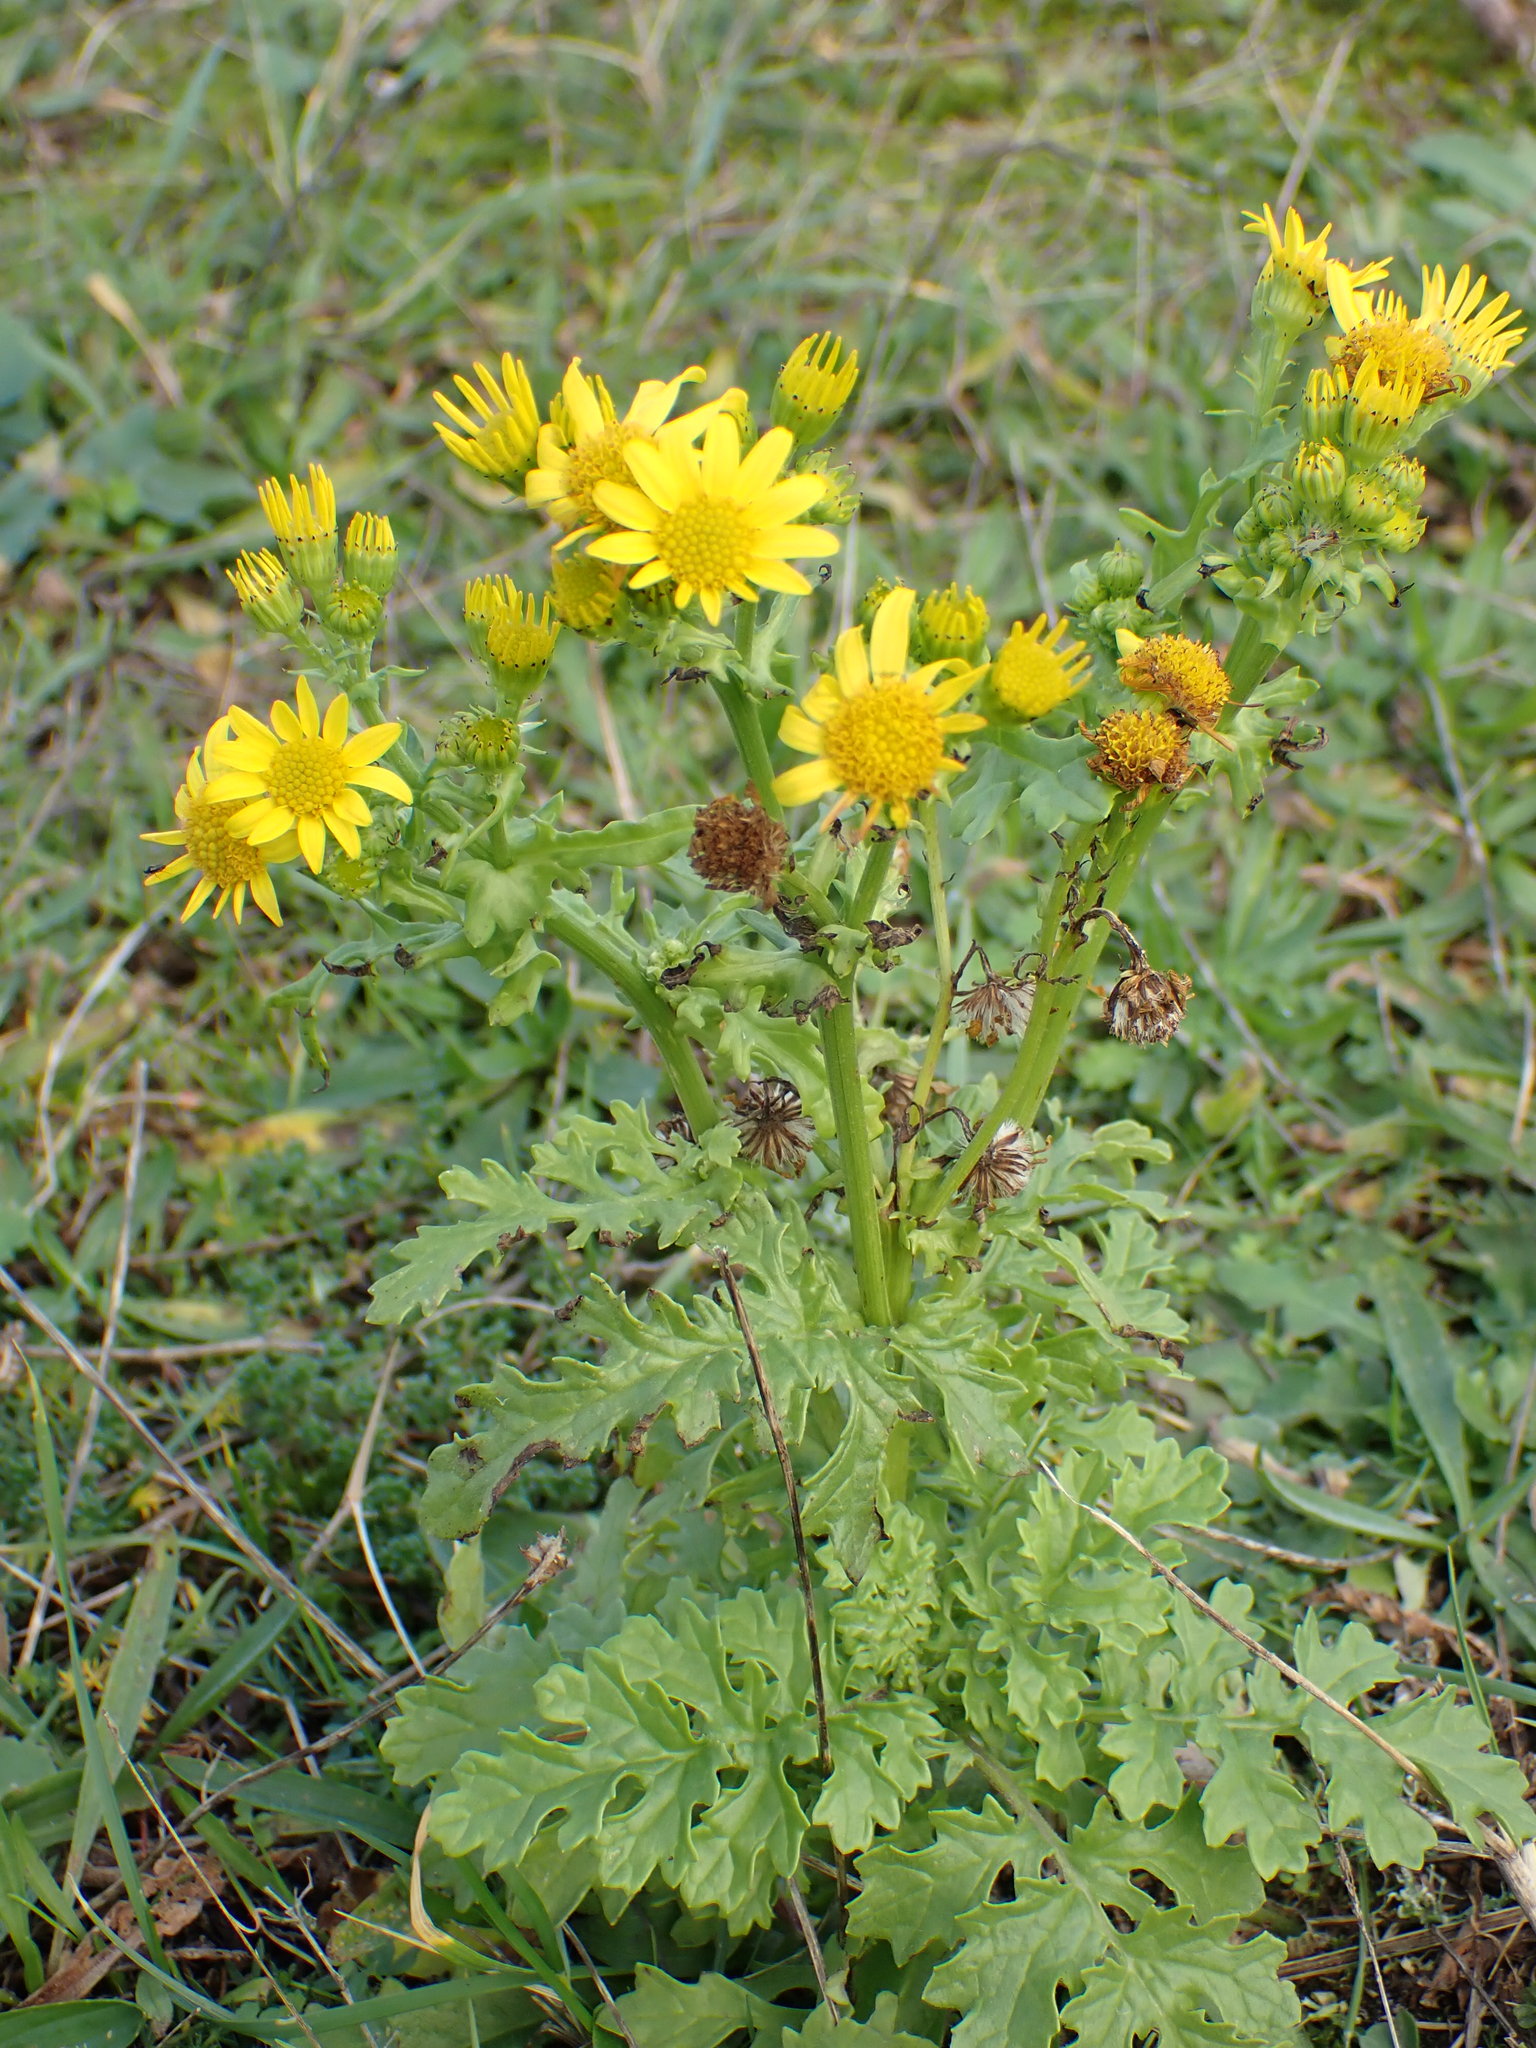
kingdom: Plantae
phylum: Tracheophyta
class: Magnoliopsida
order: Asterales
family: Asteraceae
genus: Jacobaea
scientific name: Jacobaea vulgaris
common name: Stinking willie
